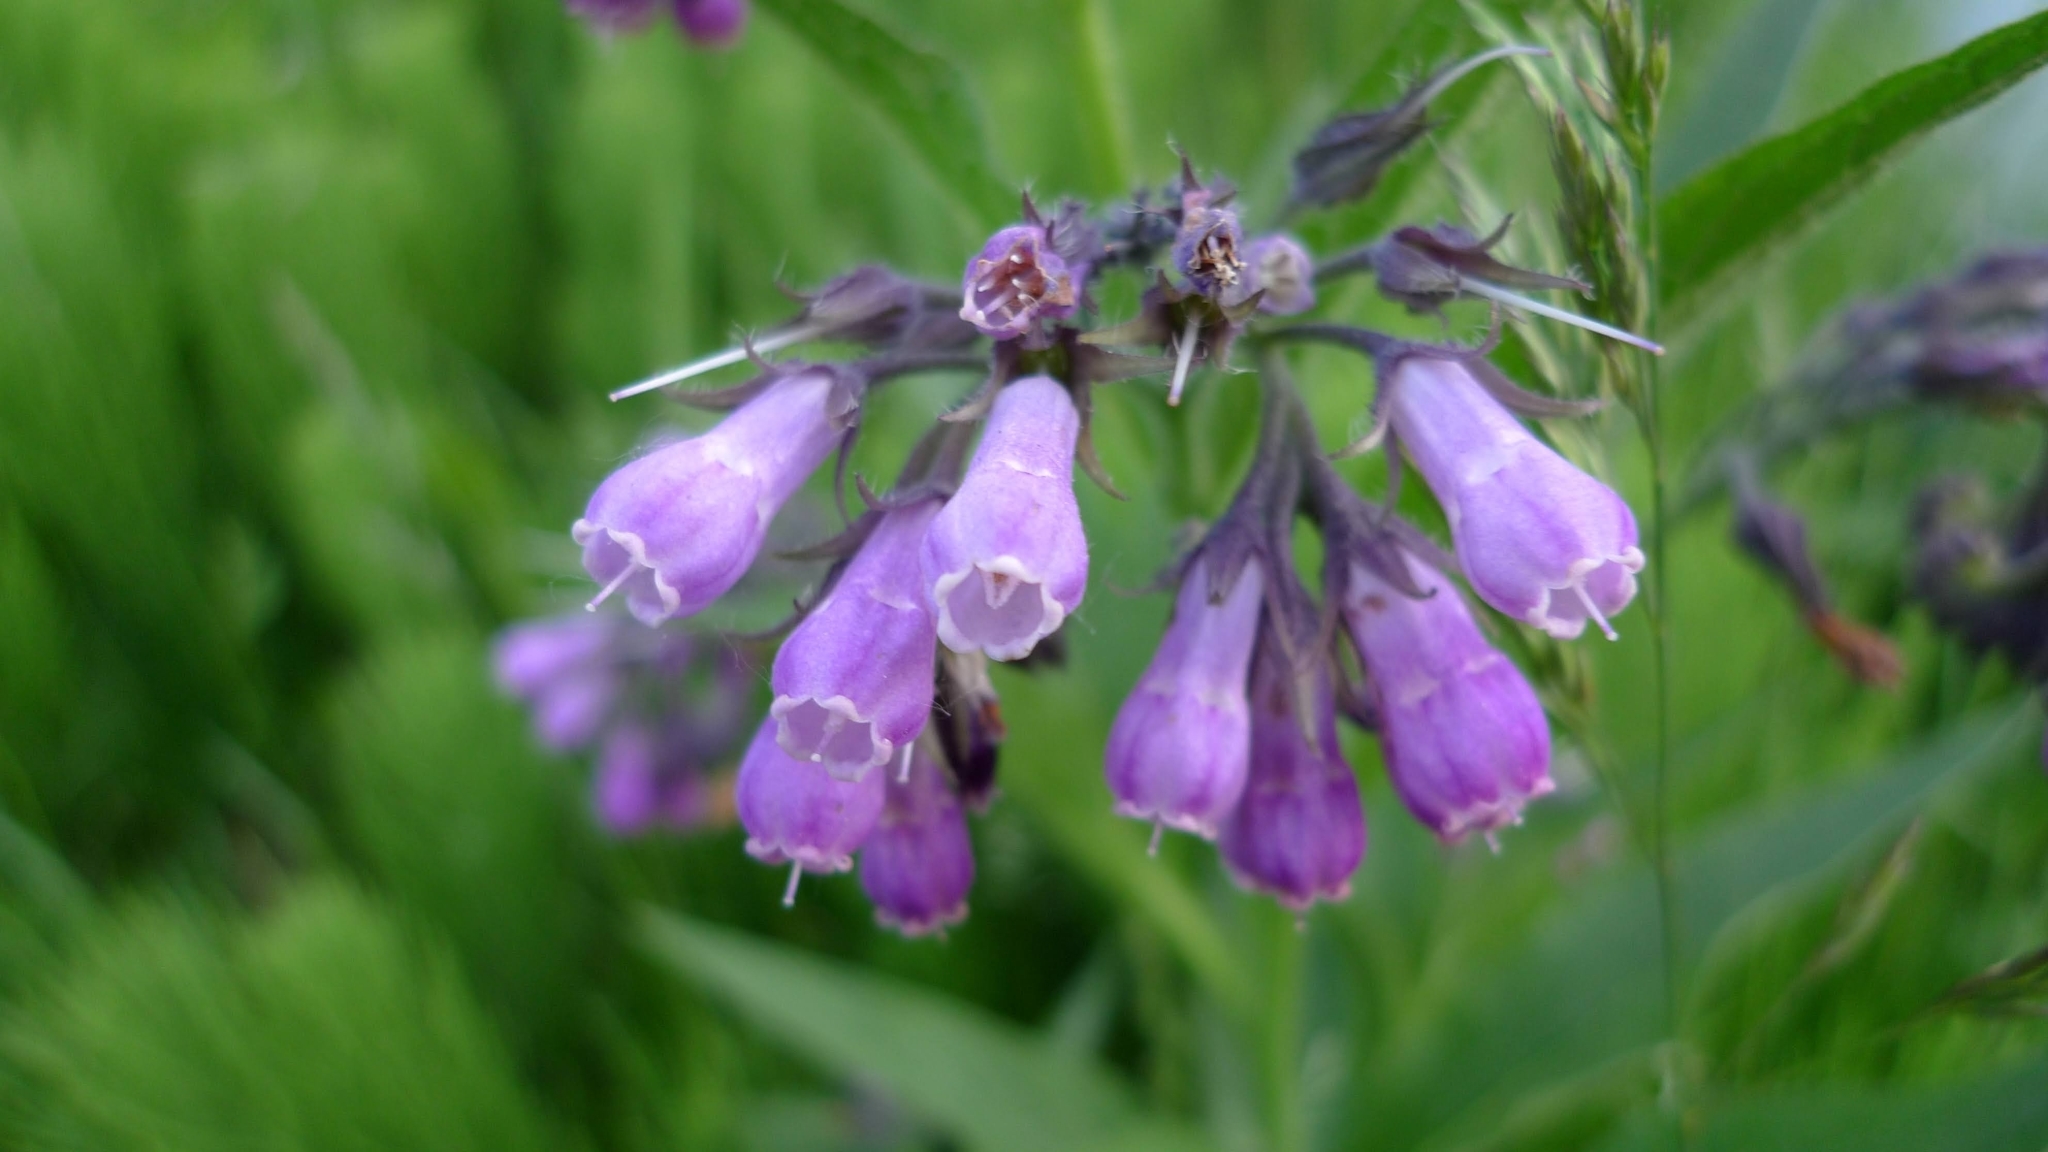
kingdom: Plantae
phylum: Tracheophyta
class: Magnoliopsida
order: Boraginales
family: Boraginaceae
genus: Symphytum
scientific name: Symphytum officinale
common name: Common comfrey
